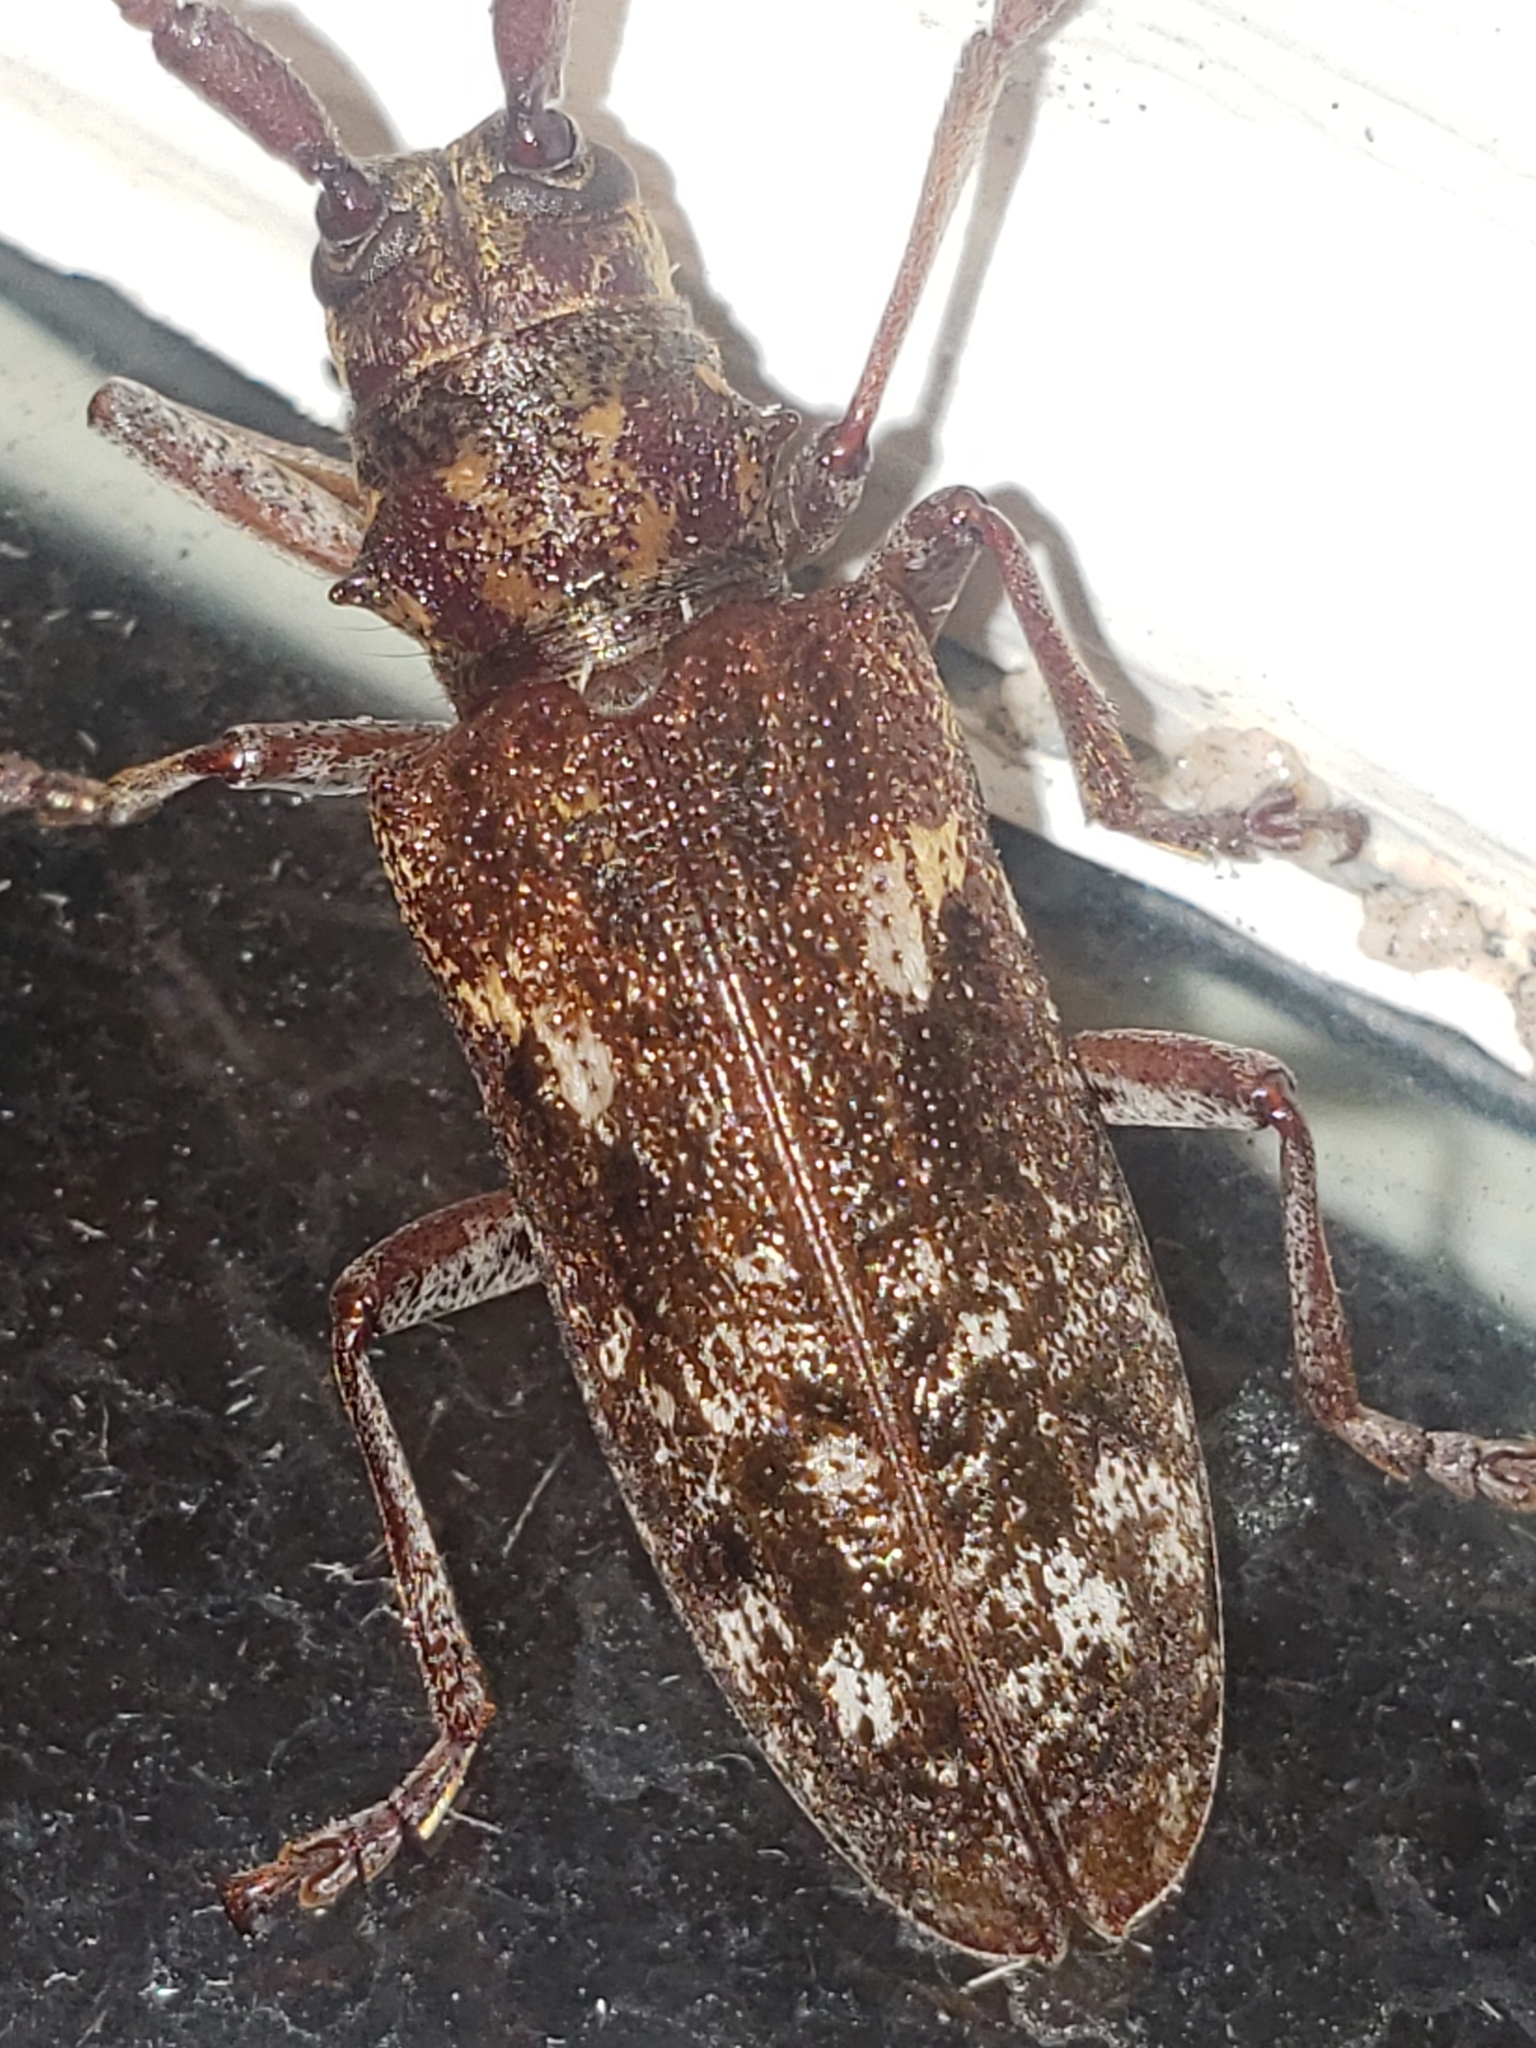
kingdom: Animalia
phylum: Arthropoda
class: Insecta
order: Coleoptera
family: Cerambycidae
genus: Monochamus
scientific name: Monochamus carolinensis
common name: Carolina pine sawyer
